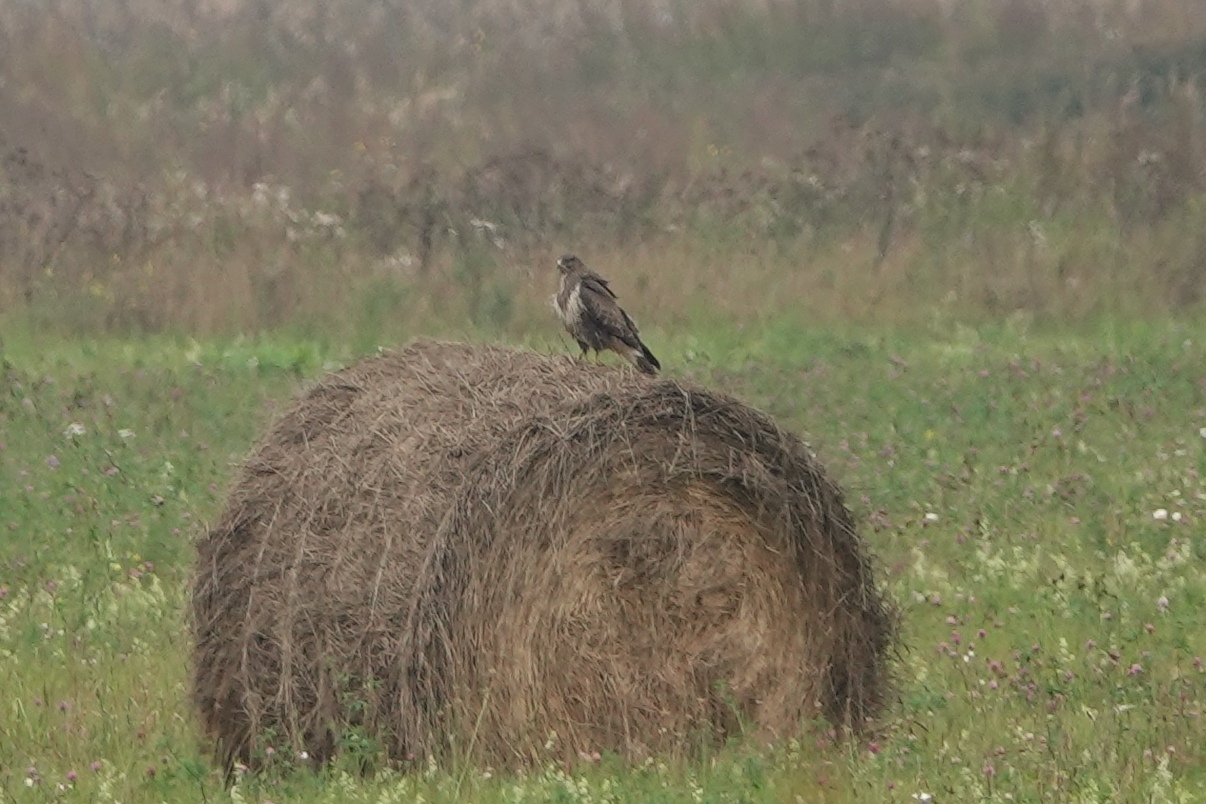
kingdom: Animalia
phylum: Chordata
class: Aves
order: Accipitriformes
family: Accipitridae
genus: Buteo
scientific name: Buteo buteo
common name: Common buzzard
